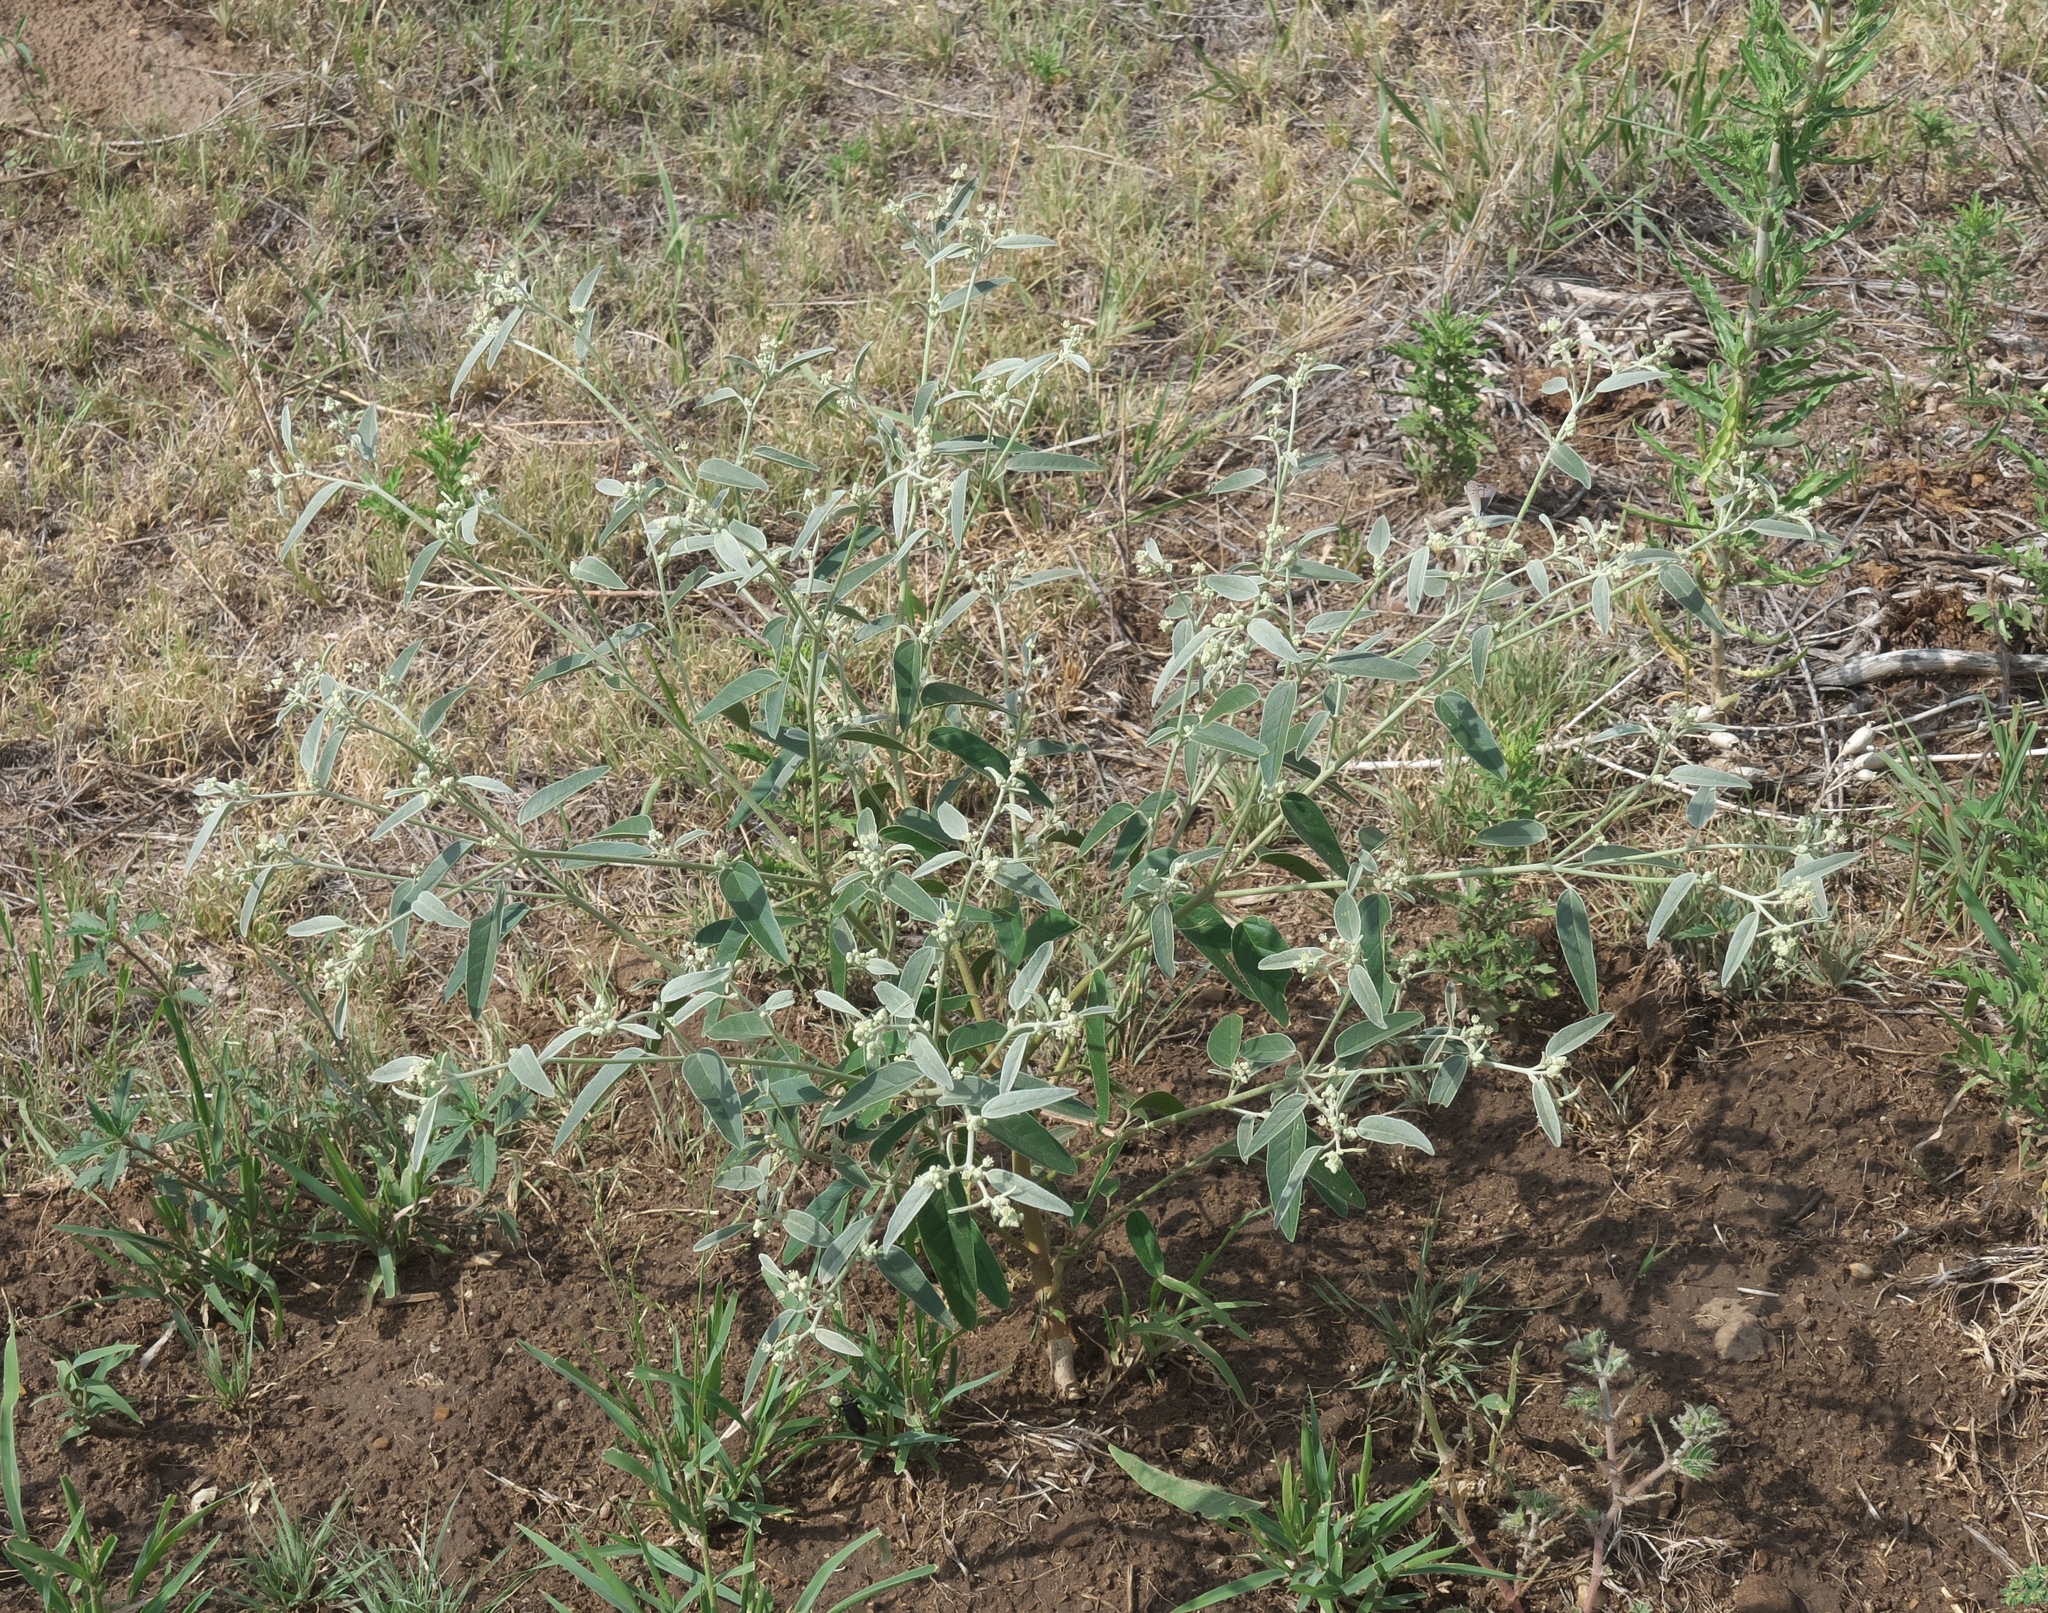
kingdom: Plantae
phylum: Tracheophyta
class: Magnoliopsida
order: Malpighiales
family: Euphorbiaceae
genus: Croton
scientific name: Croton texensis
